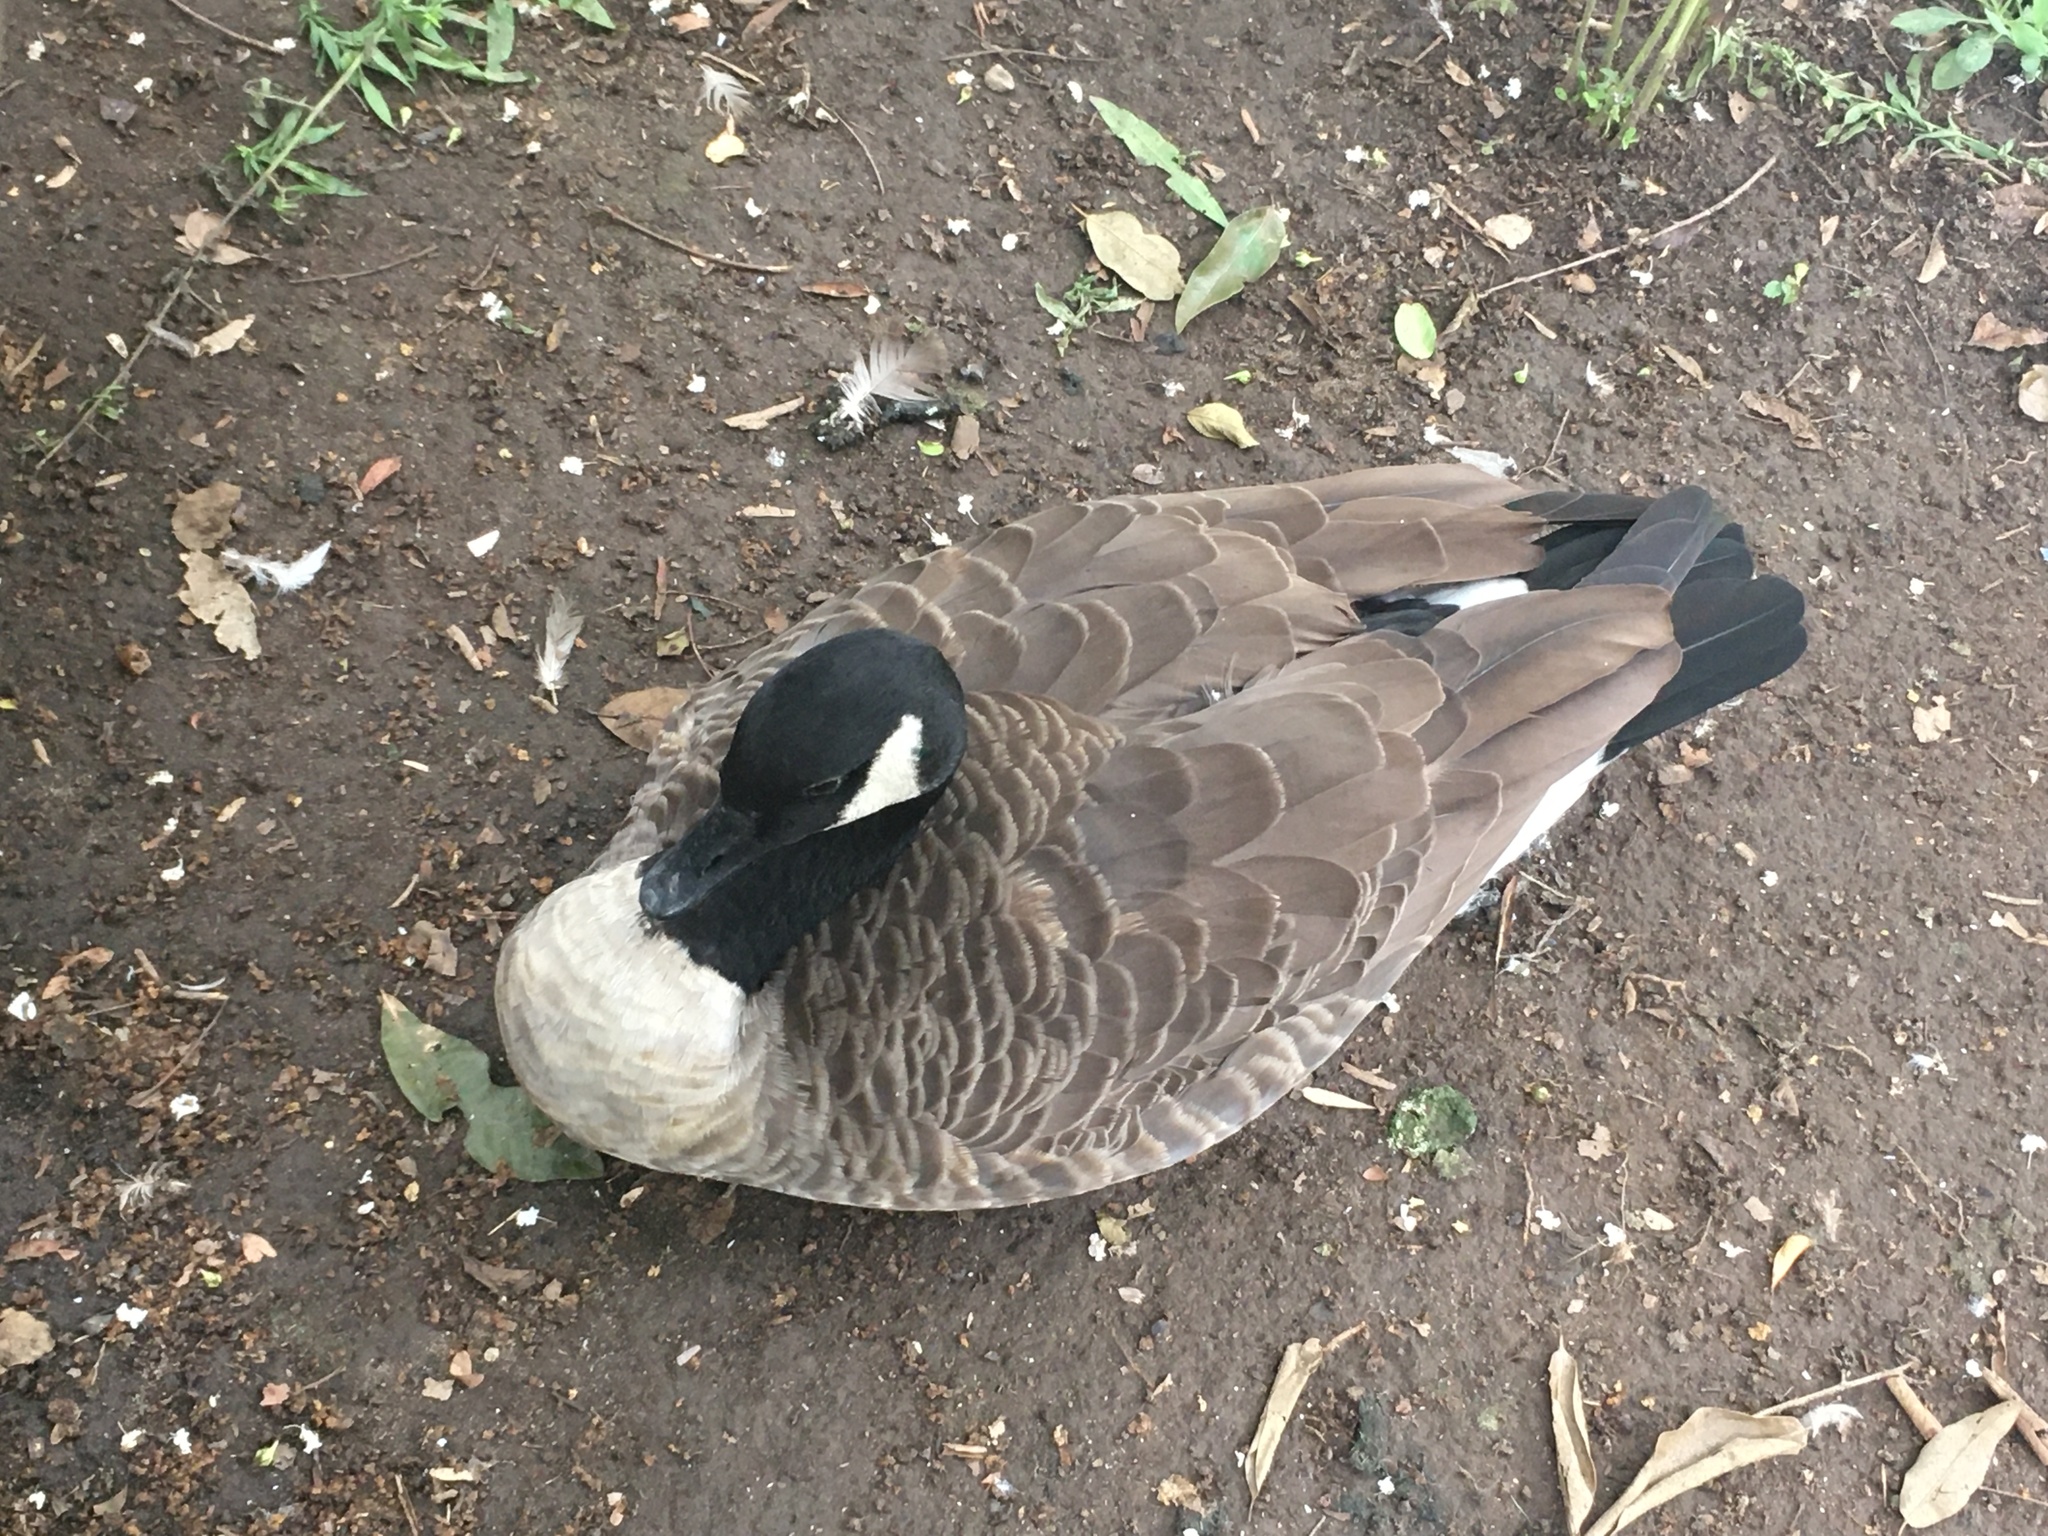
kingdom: Animalia
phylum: Chordata
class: Aves
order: Anseriformes
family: Anatidae
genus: Branta
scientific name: Branta canadensis
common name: Canada goose
